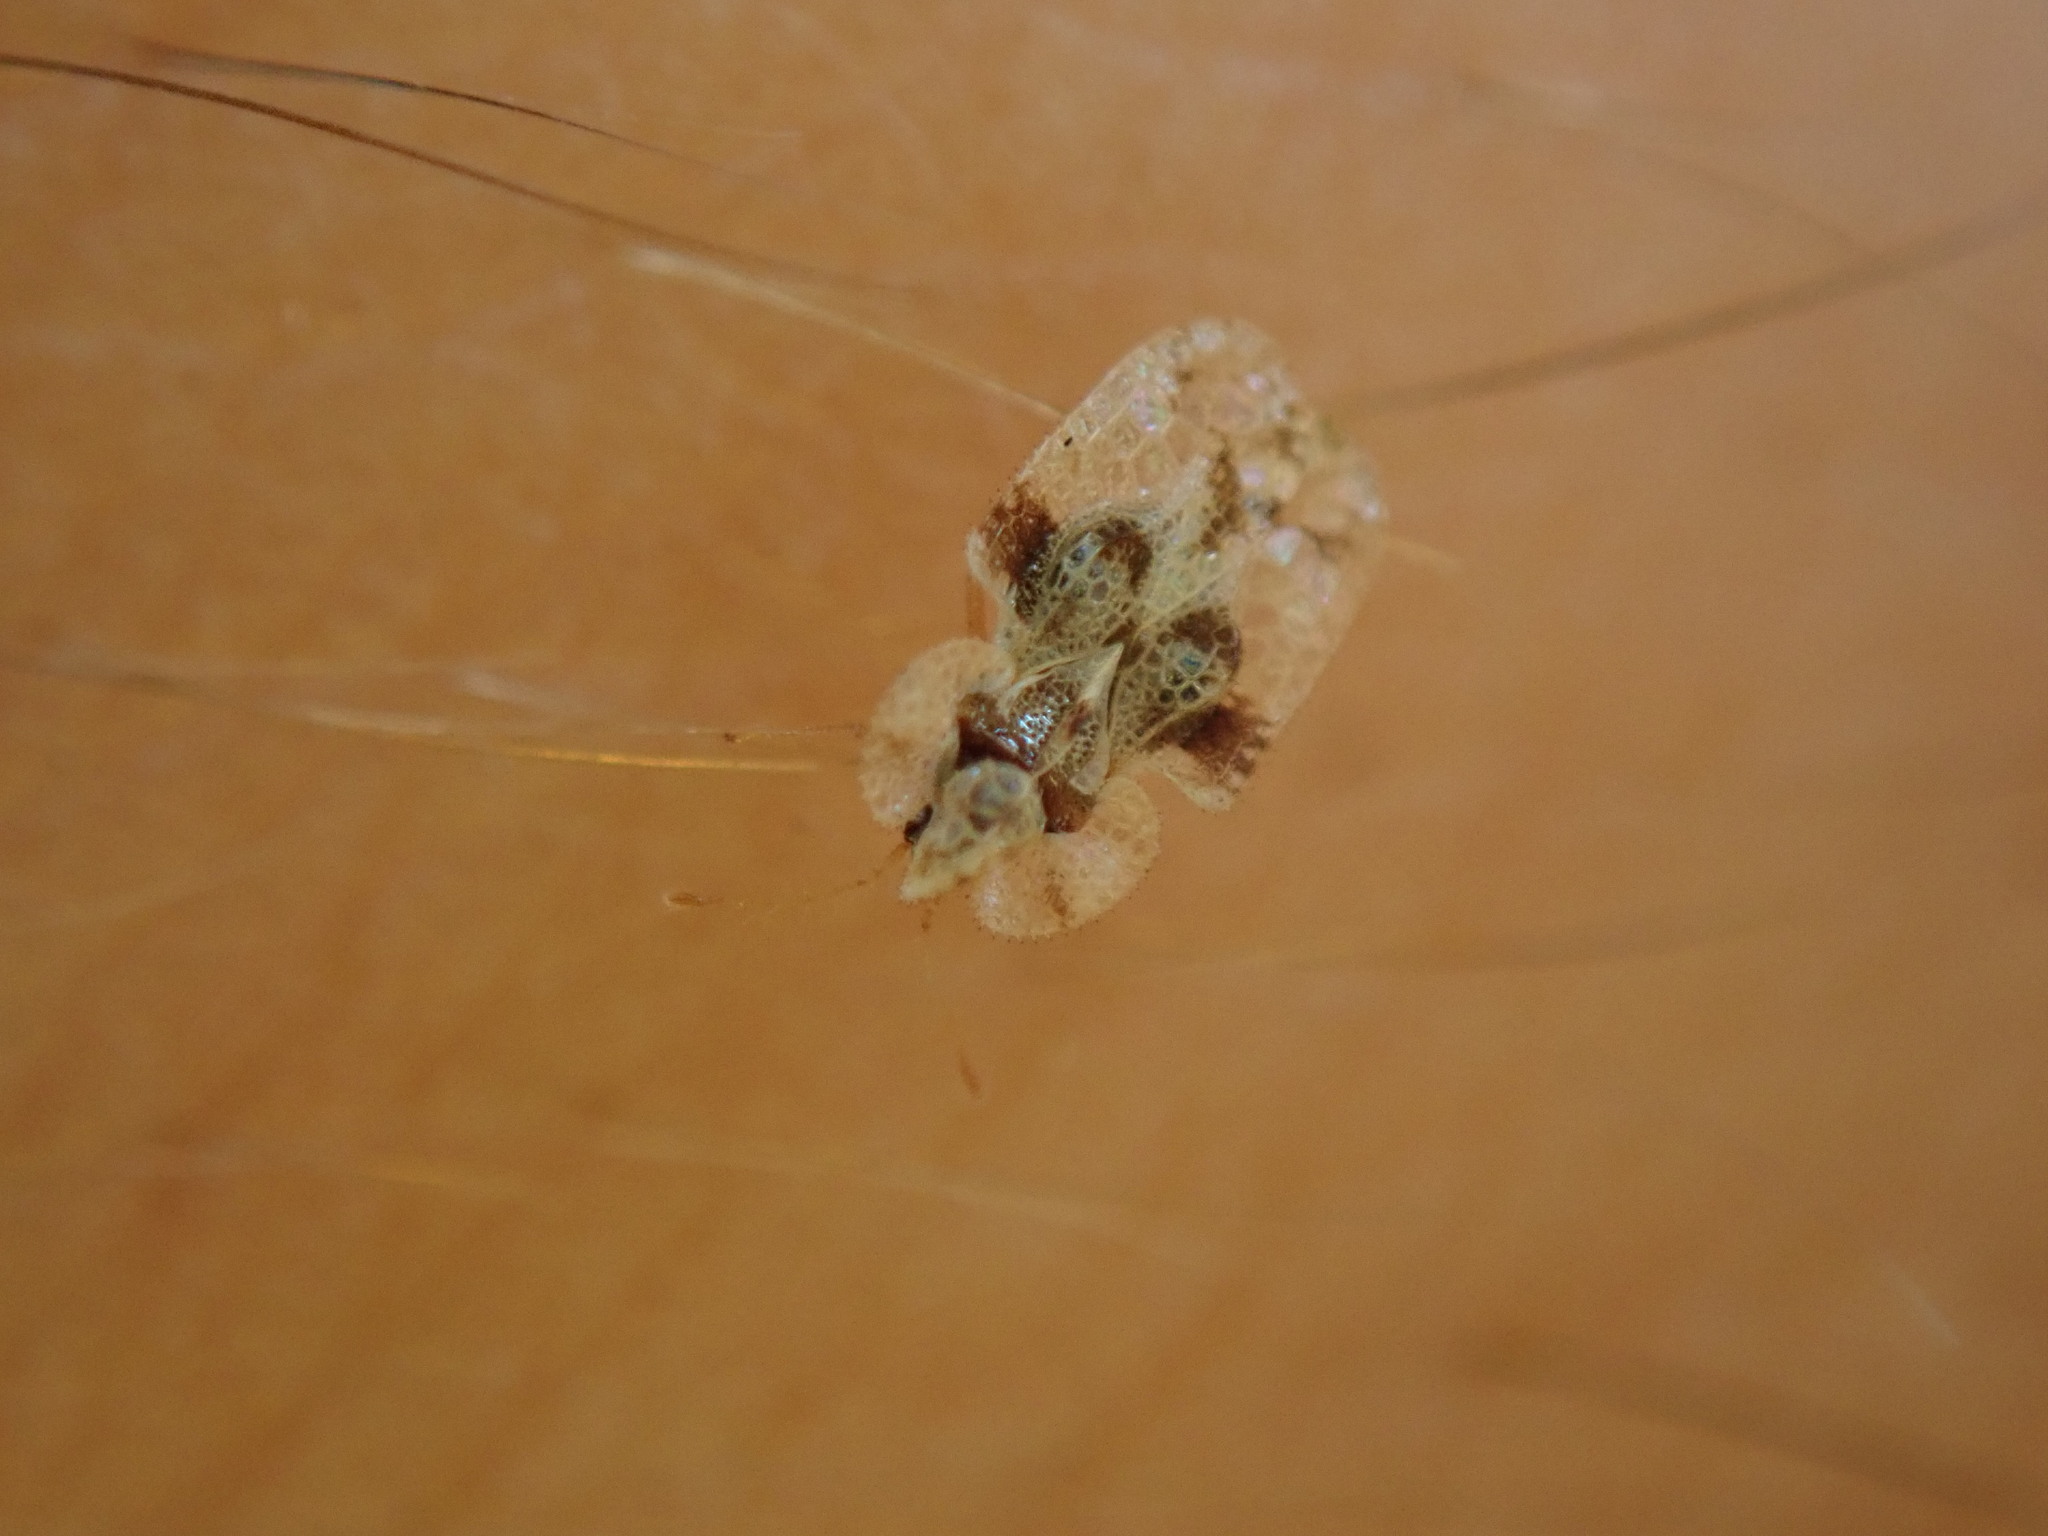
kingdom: Animalia
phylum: Arthropoda
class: Insecta
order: Hemiptera
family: Tingidae
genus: Corythucha
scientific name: Corythucha arcuata
